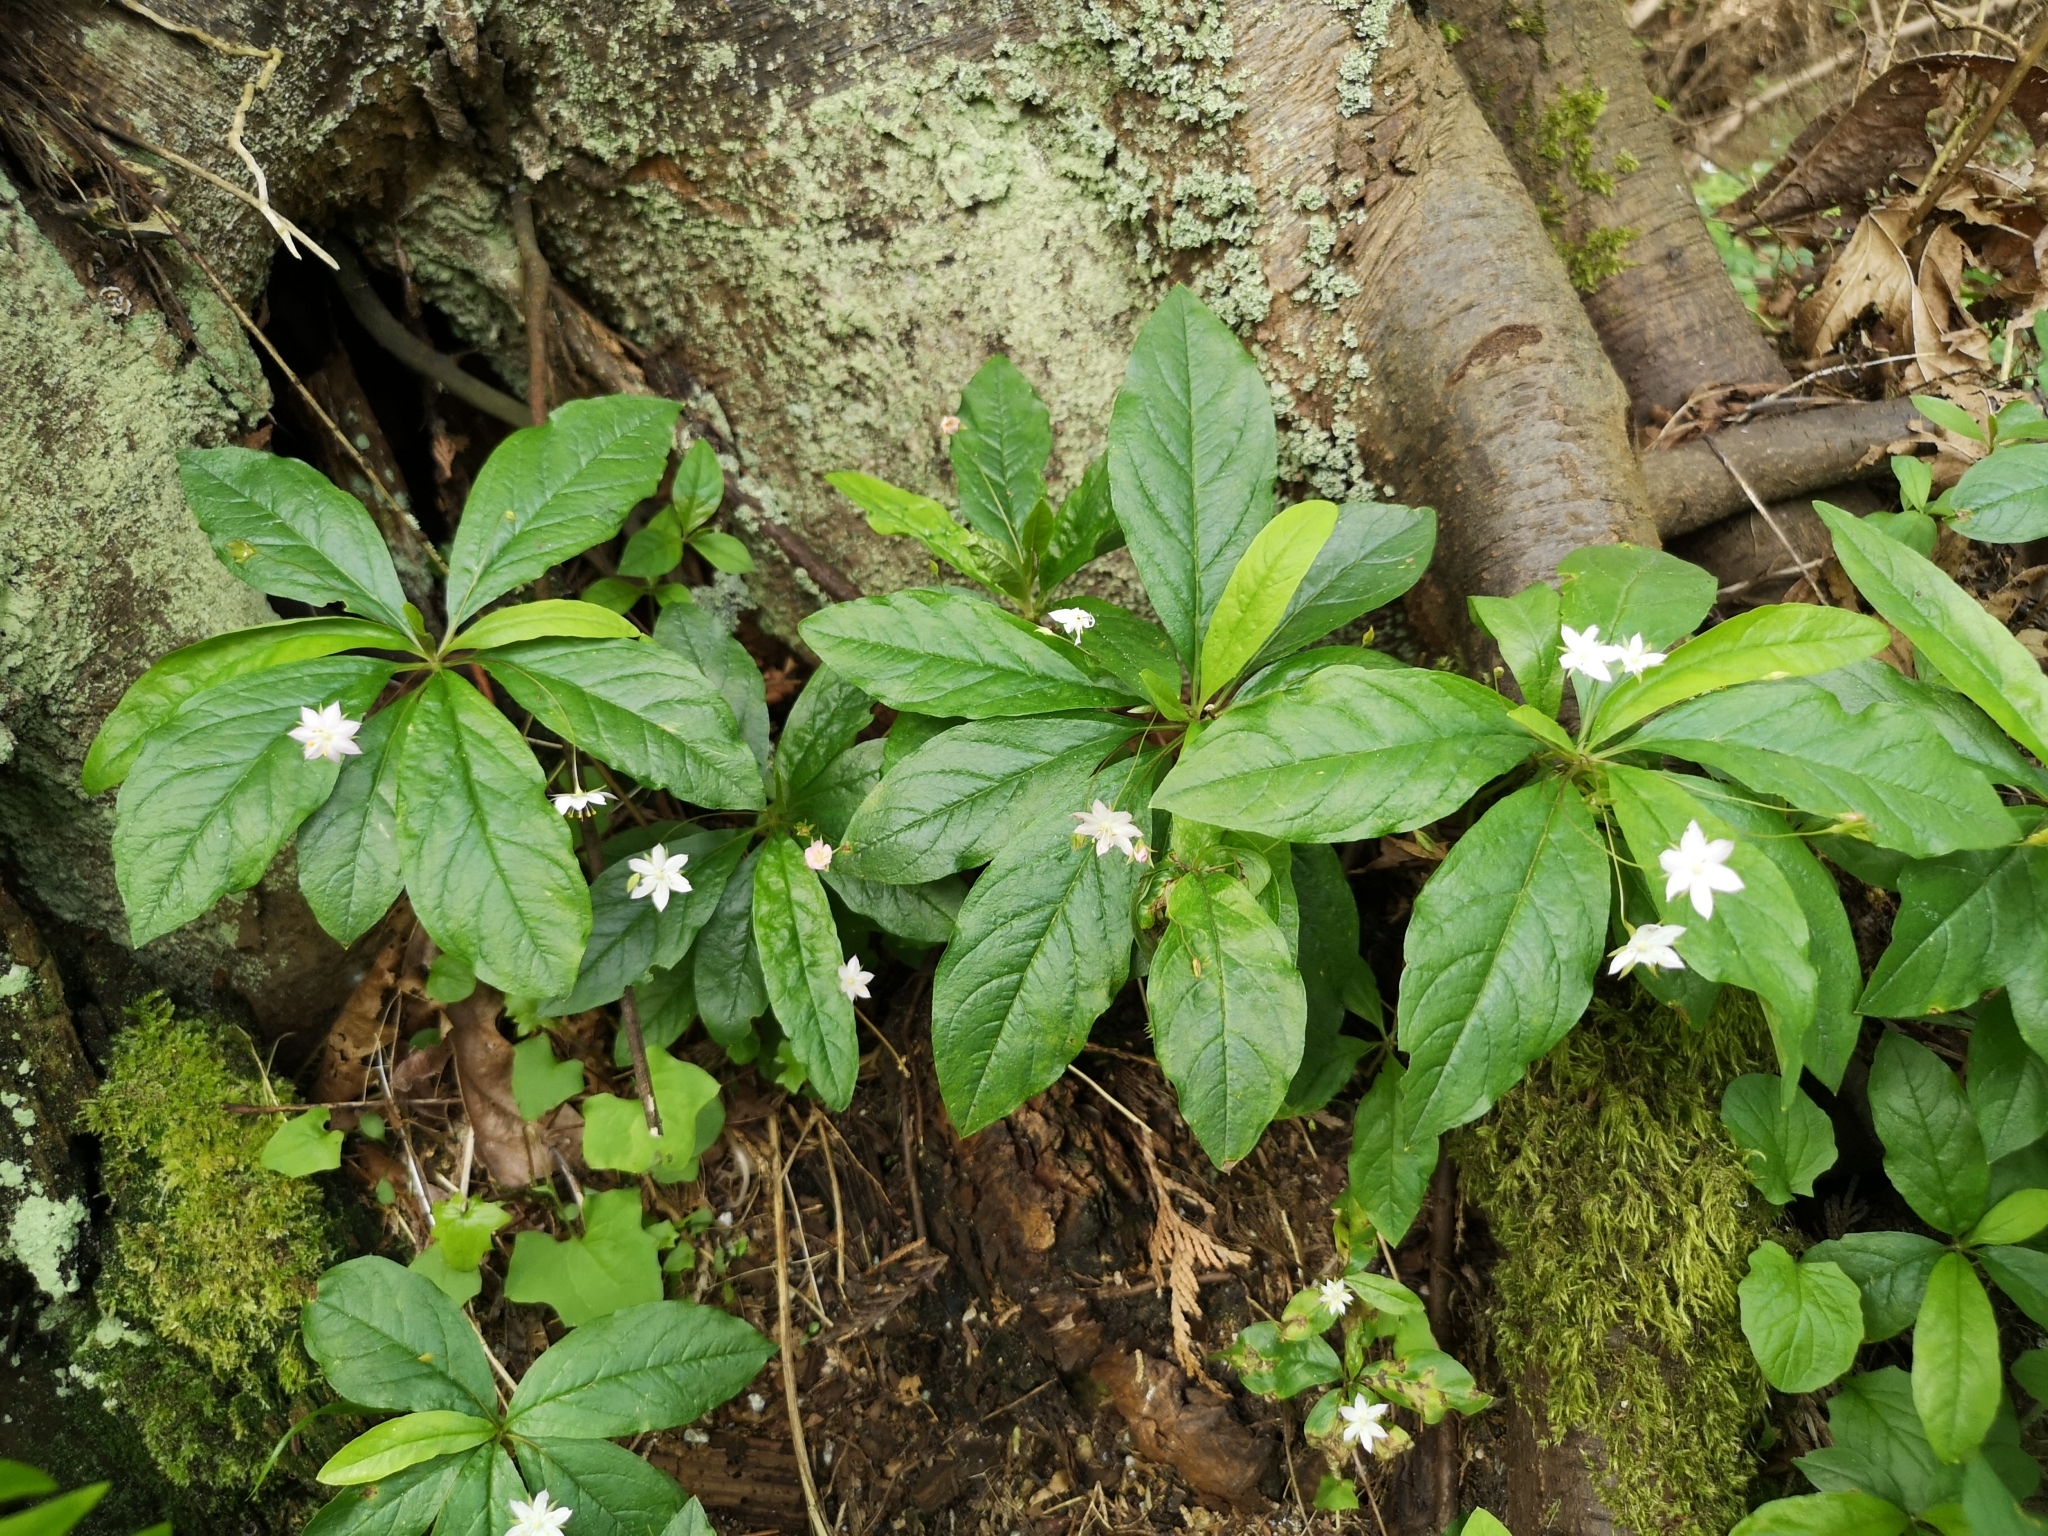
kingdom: Plantae
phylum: Tracheophyta
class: Magnoliopsida
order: Ericales
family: Primulaceae
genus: Lysimachia
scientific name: Lysimachia latifolia
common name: Pacific starflower
